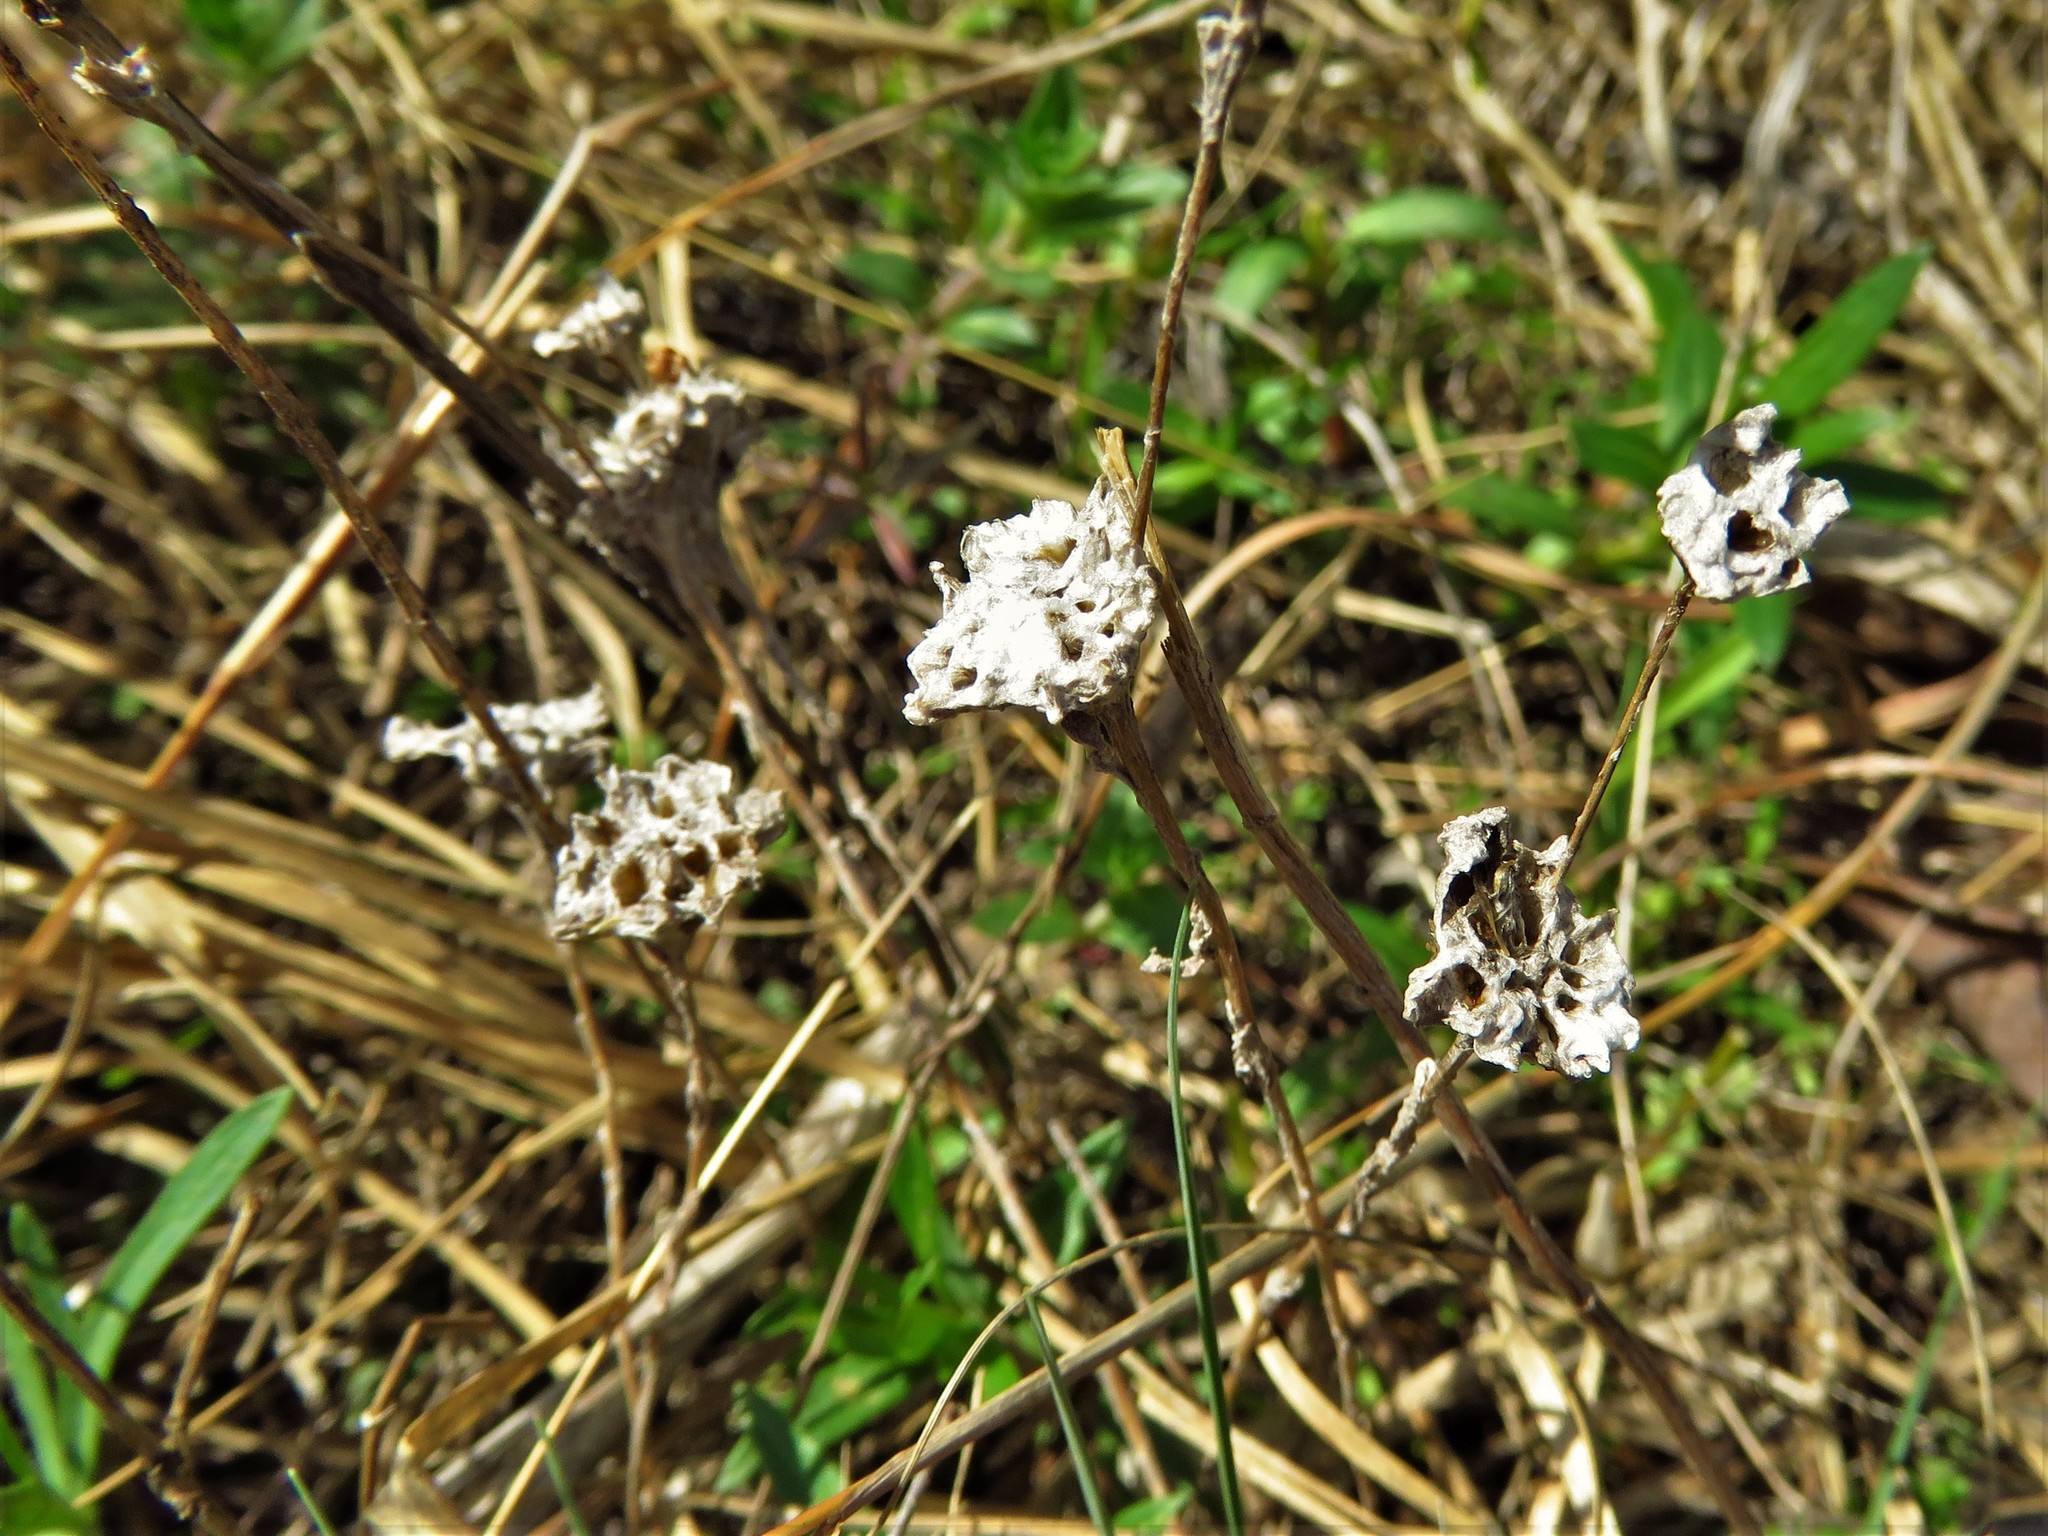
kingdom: Plantae
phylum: Tracheophyta
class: Magnoliopsida
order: Asterales
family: Asteraceae
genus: Diaperia
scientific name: Diaperia prolifera
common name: Big-head rabbit-tobacco
